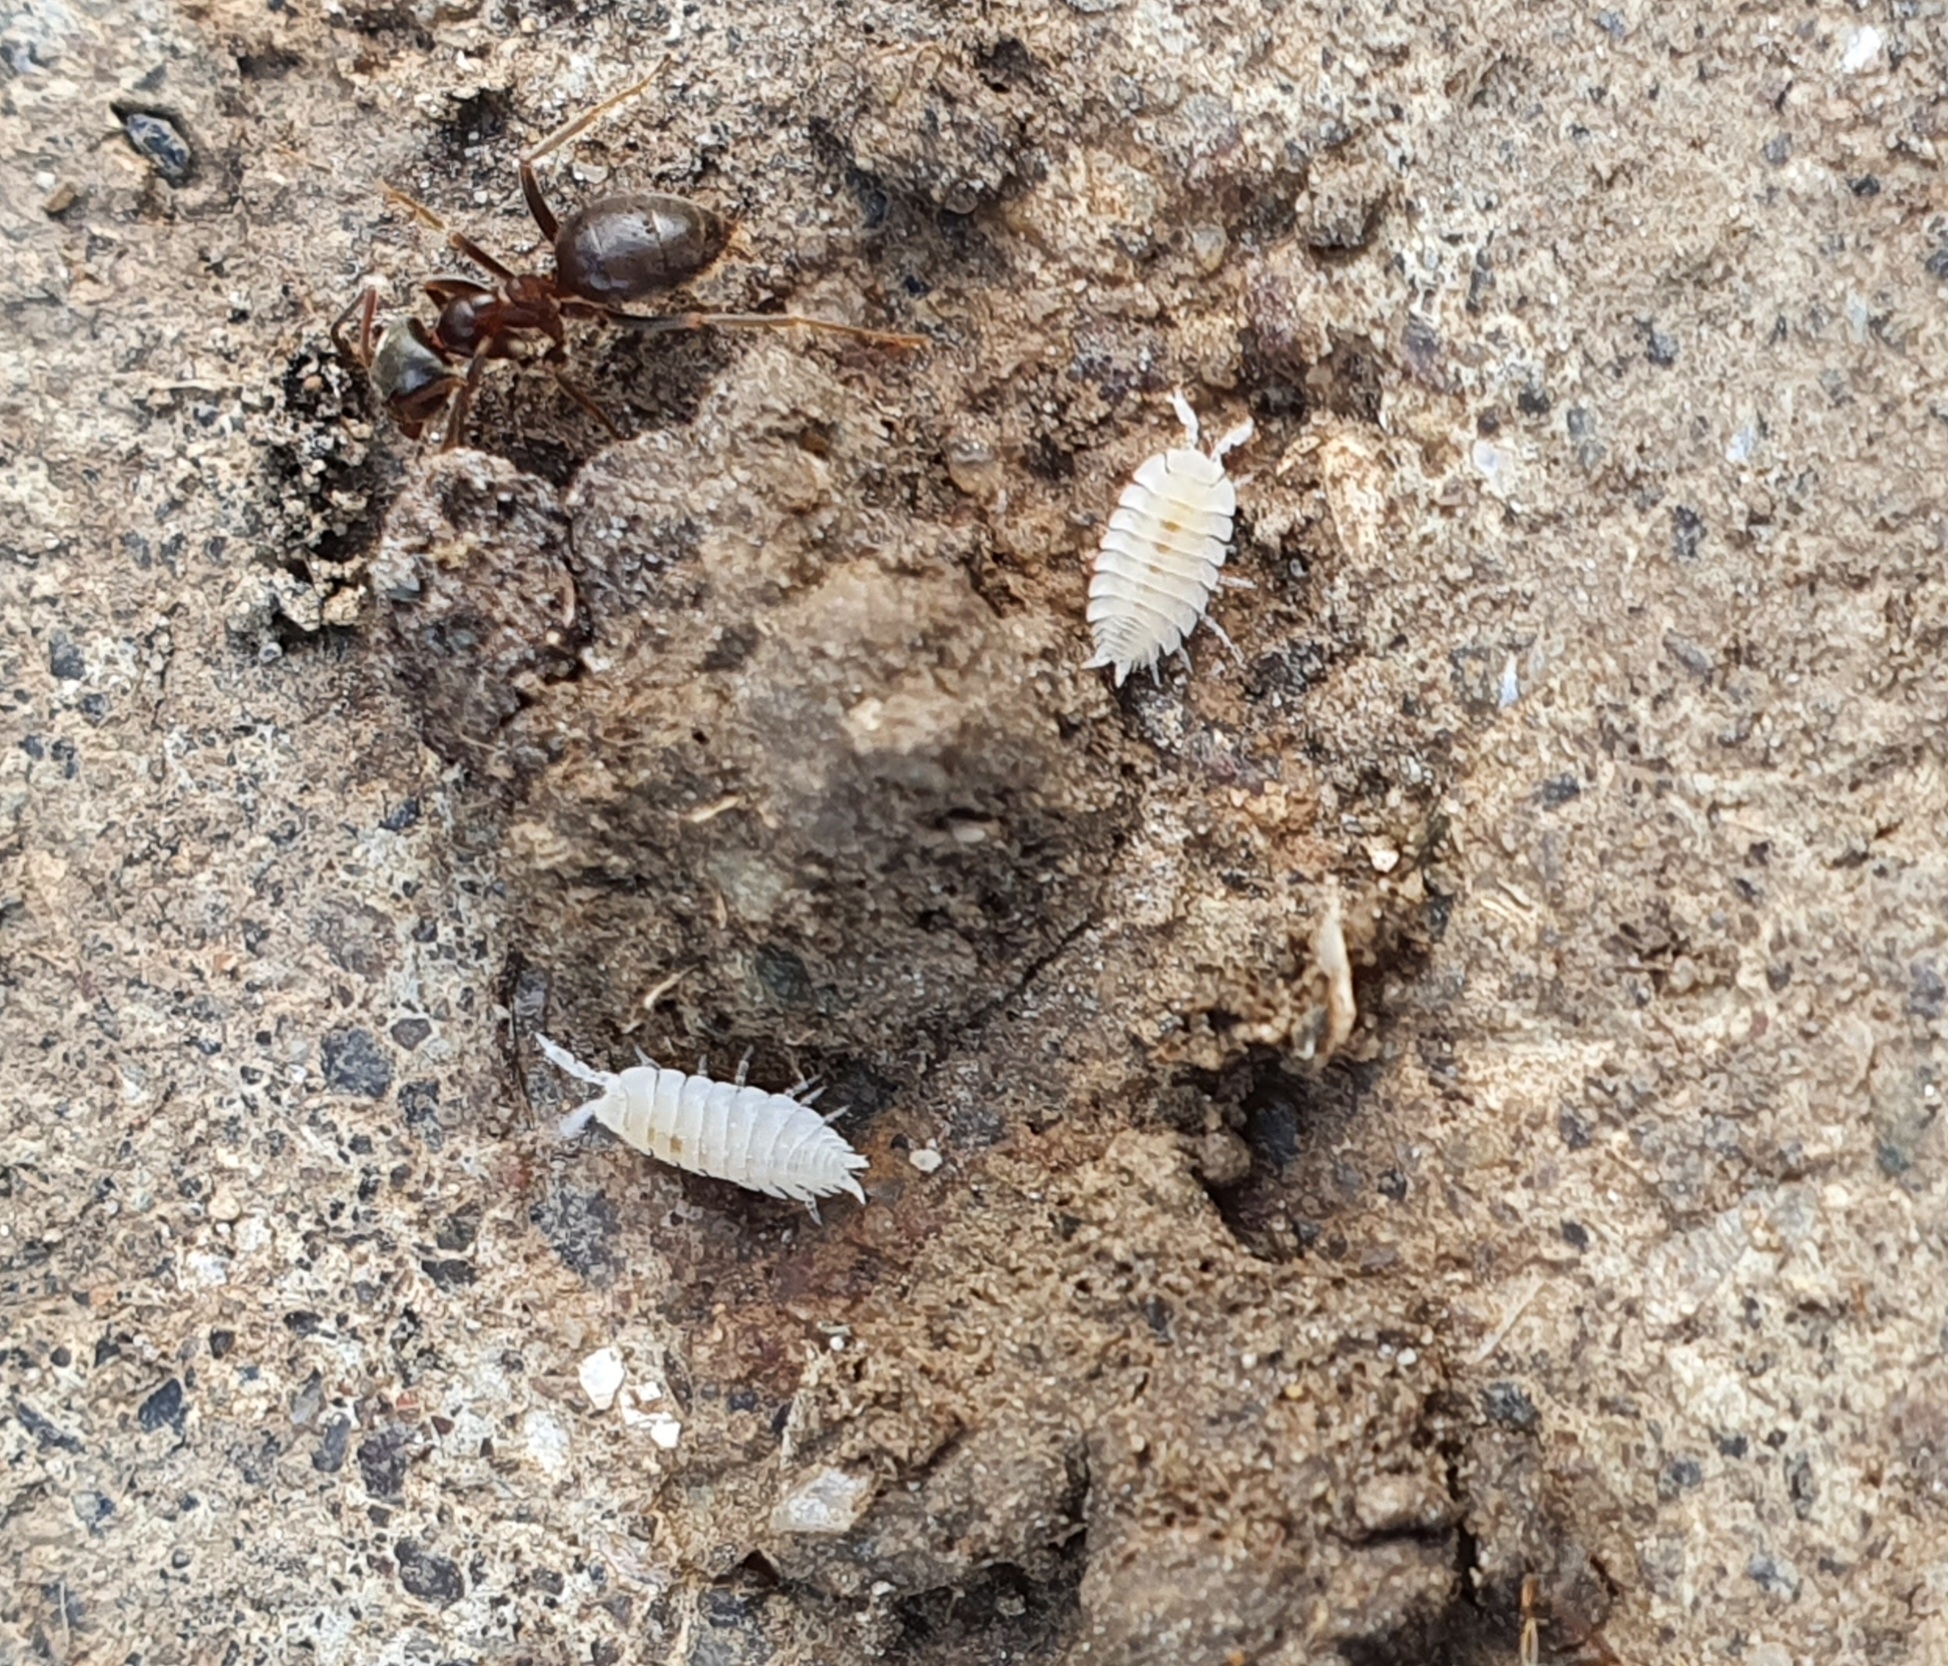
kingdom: Animalia
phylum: Arthropoda
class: Malacostraca
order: Isopoda
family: Platyarthridae
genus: Platyarthrus
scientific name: Platyarthrus hoffmannseggii
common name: Ant woodlouse
